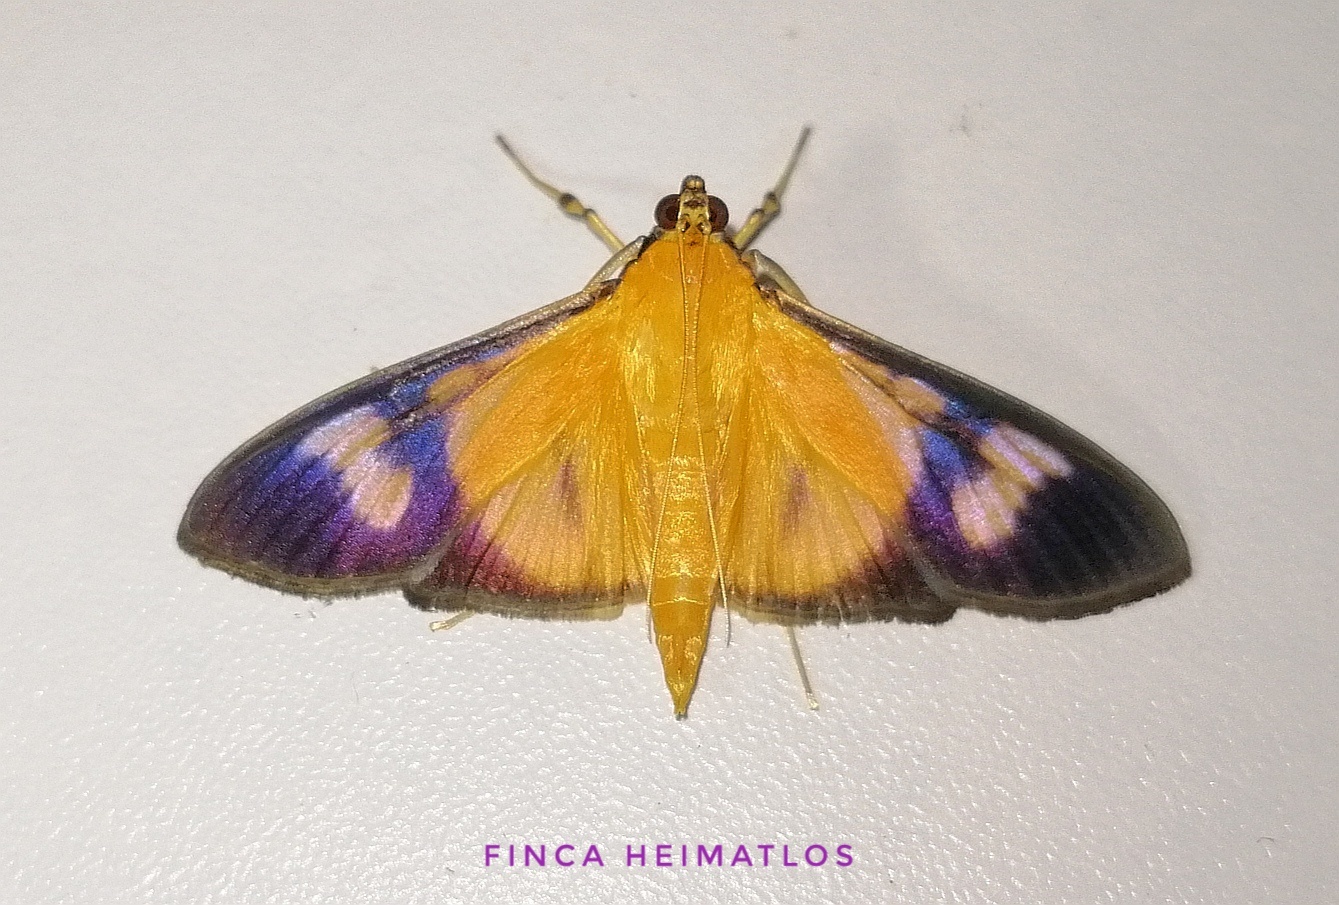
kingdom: Animalia
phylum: Arthropoda
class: Insecta
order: Lepidoptera
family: Crambidae
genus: Phostria
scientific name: Phostria dohrni
